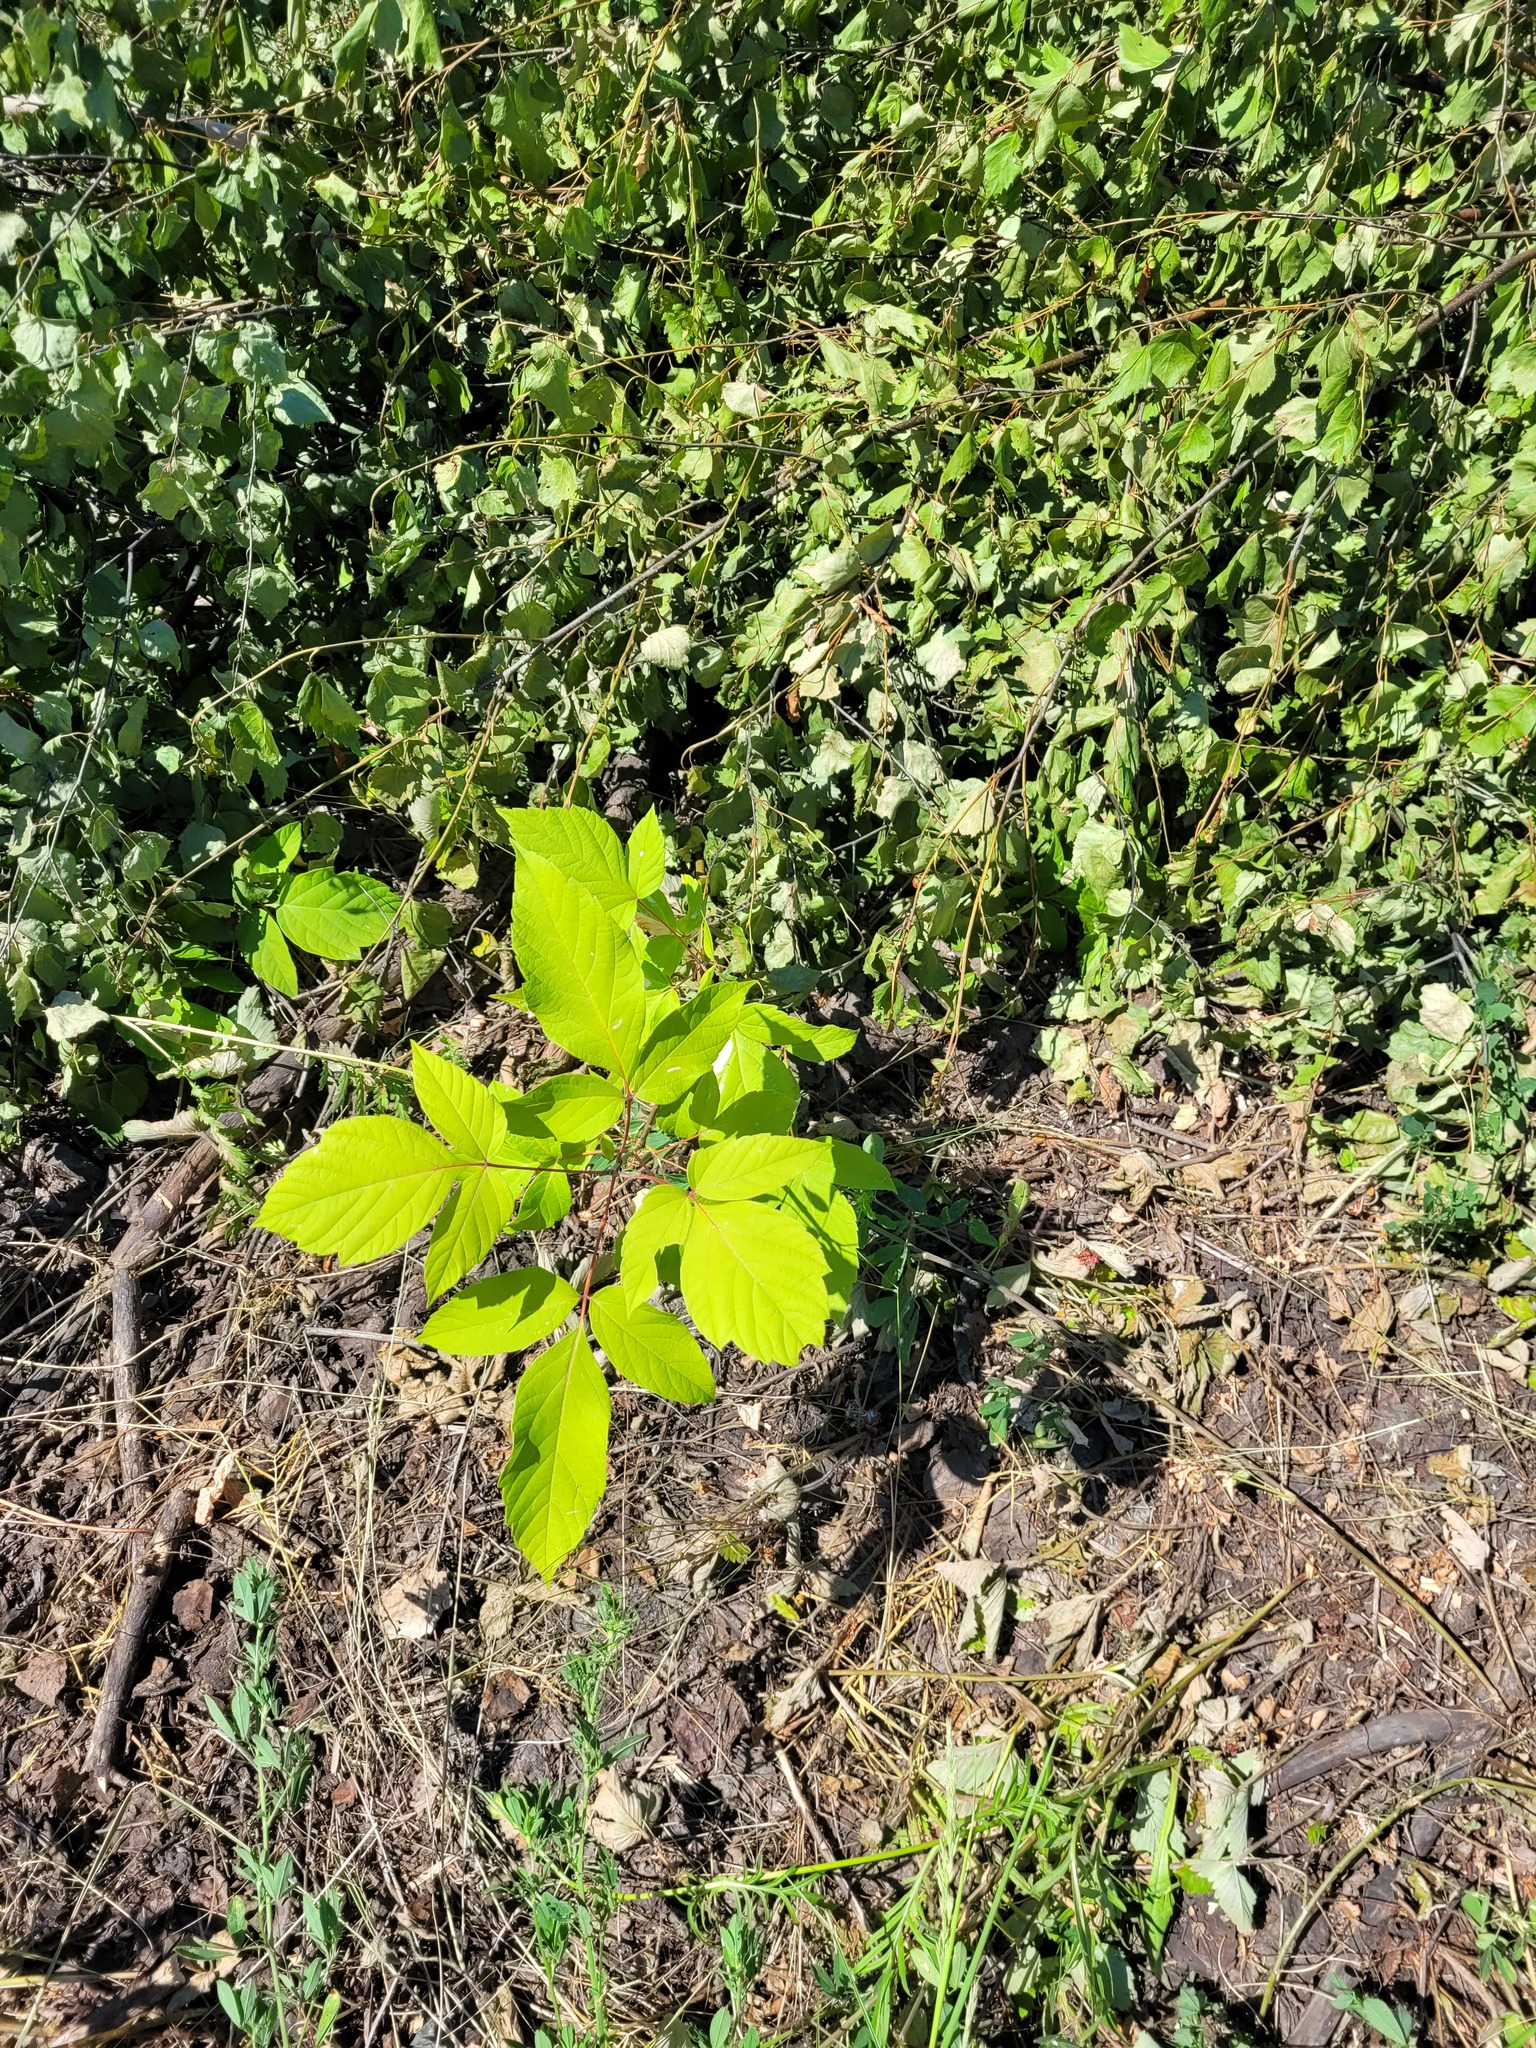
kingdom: Plantae
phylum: Tracheophyta
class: Magnoliopsida
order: Sapindales
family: Sapindaceae
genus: Acer
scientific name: Acer negundo
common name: Ashleaf maple
